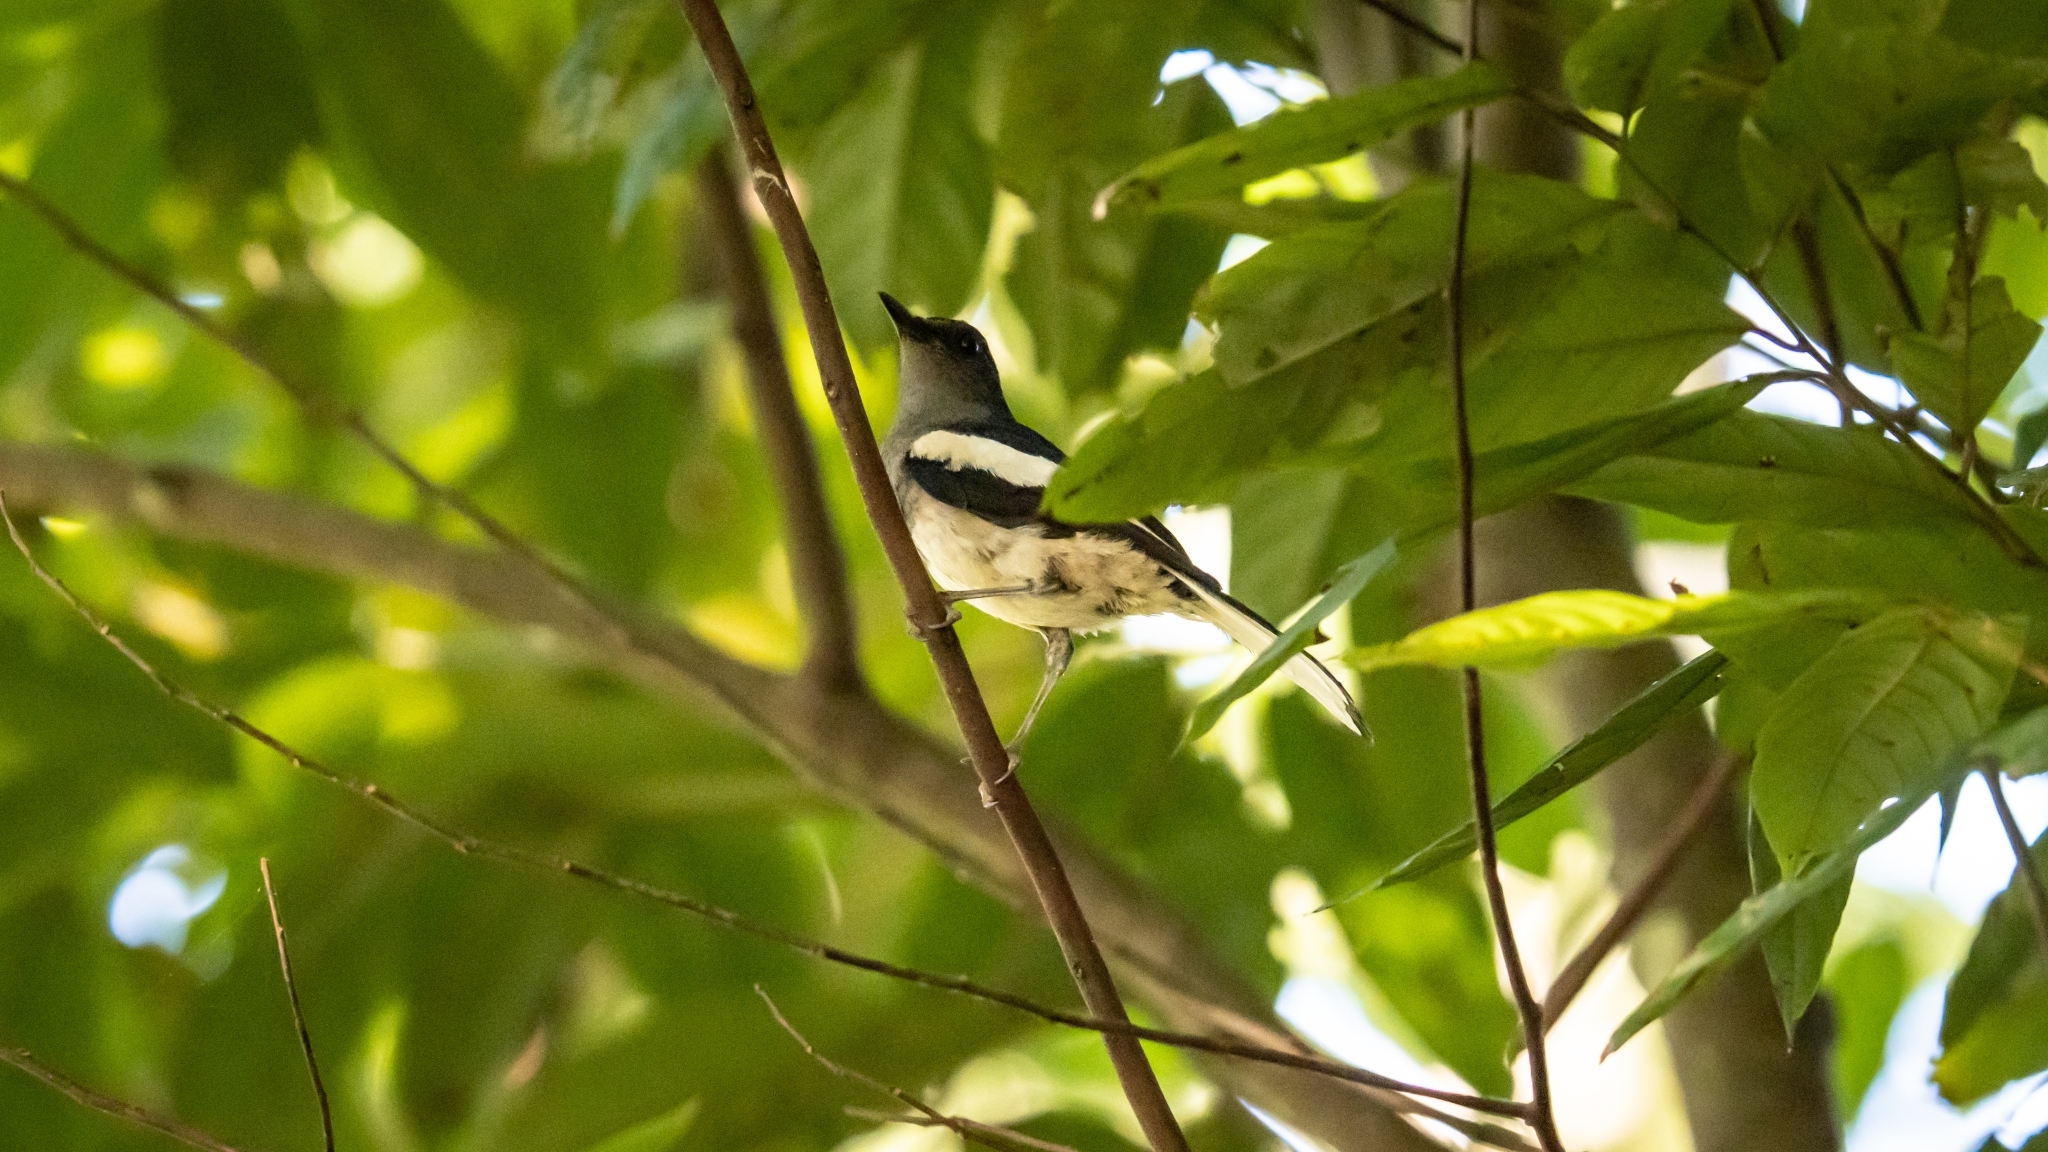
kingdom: Animalia
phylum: Chordata
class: Aves
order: Passeriformes
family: Muscicapidae
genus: Copsychus
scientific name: Copsychus saularis
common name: Oriental magpie-robin
